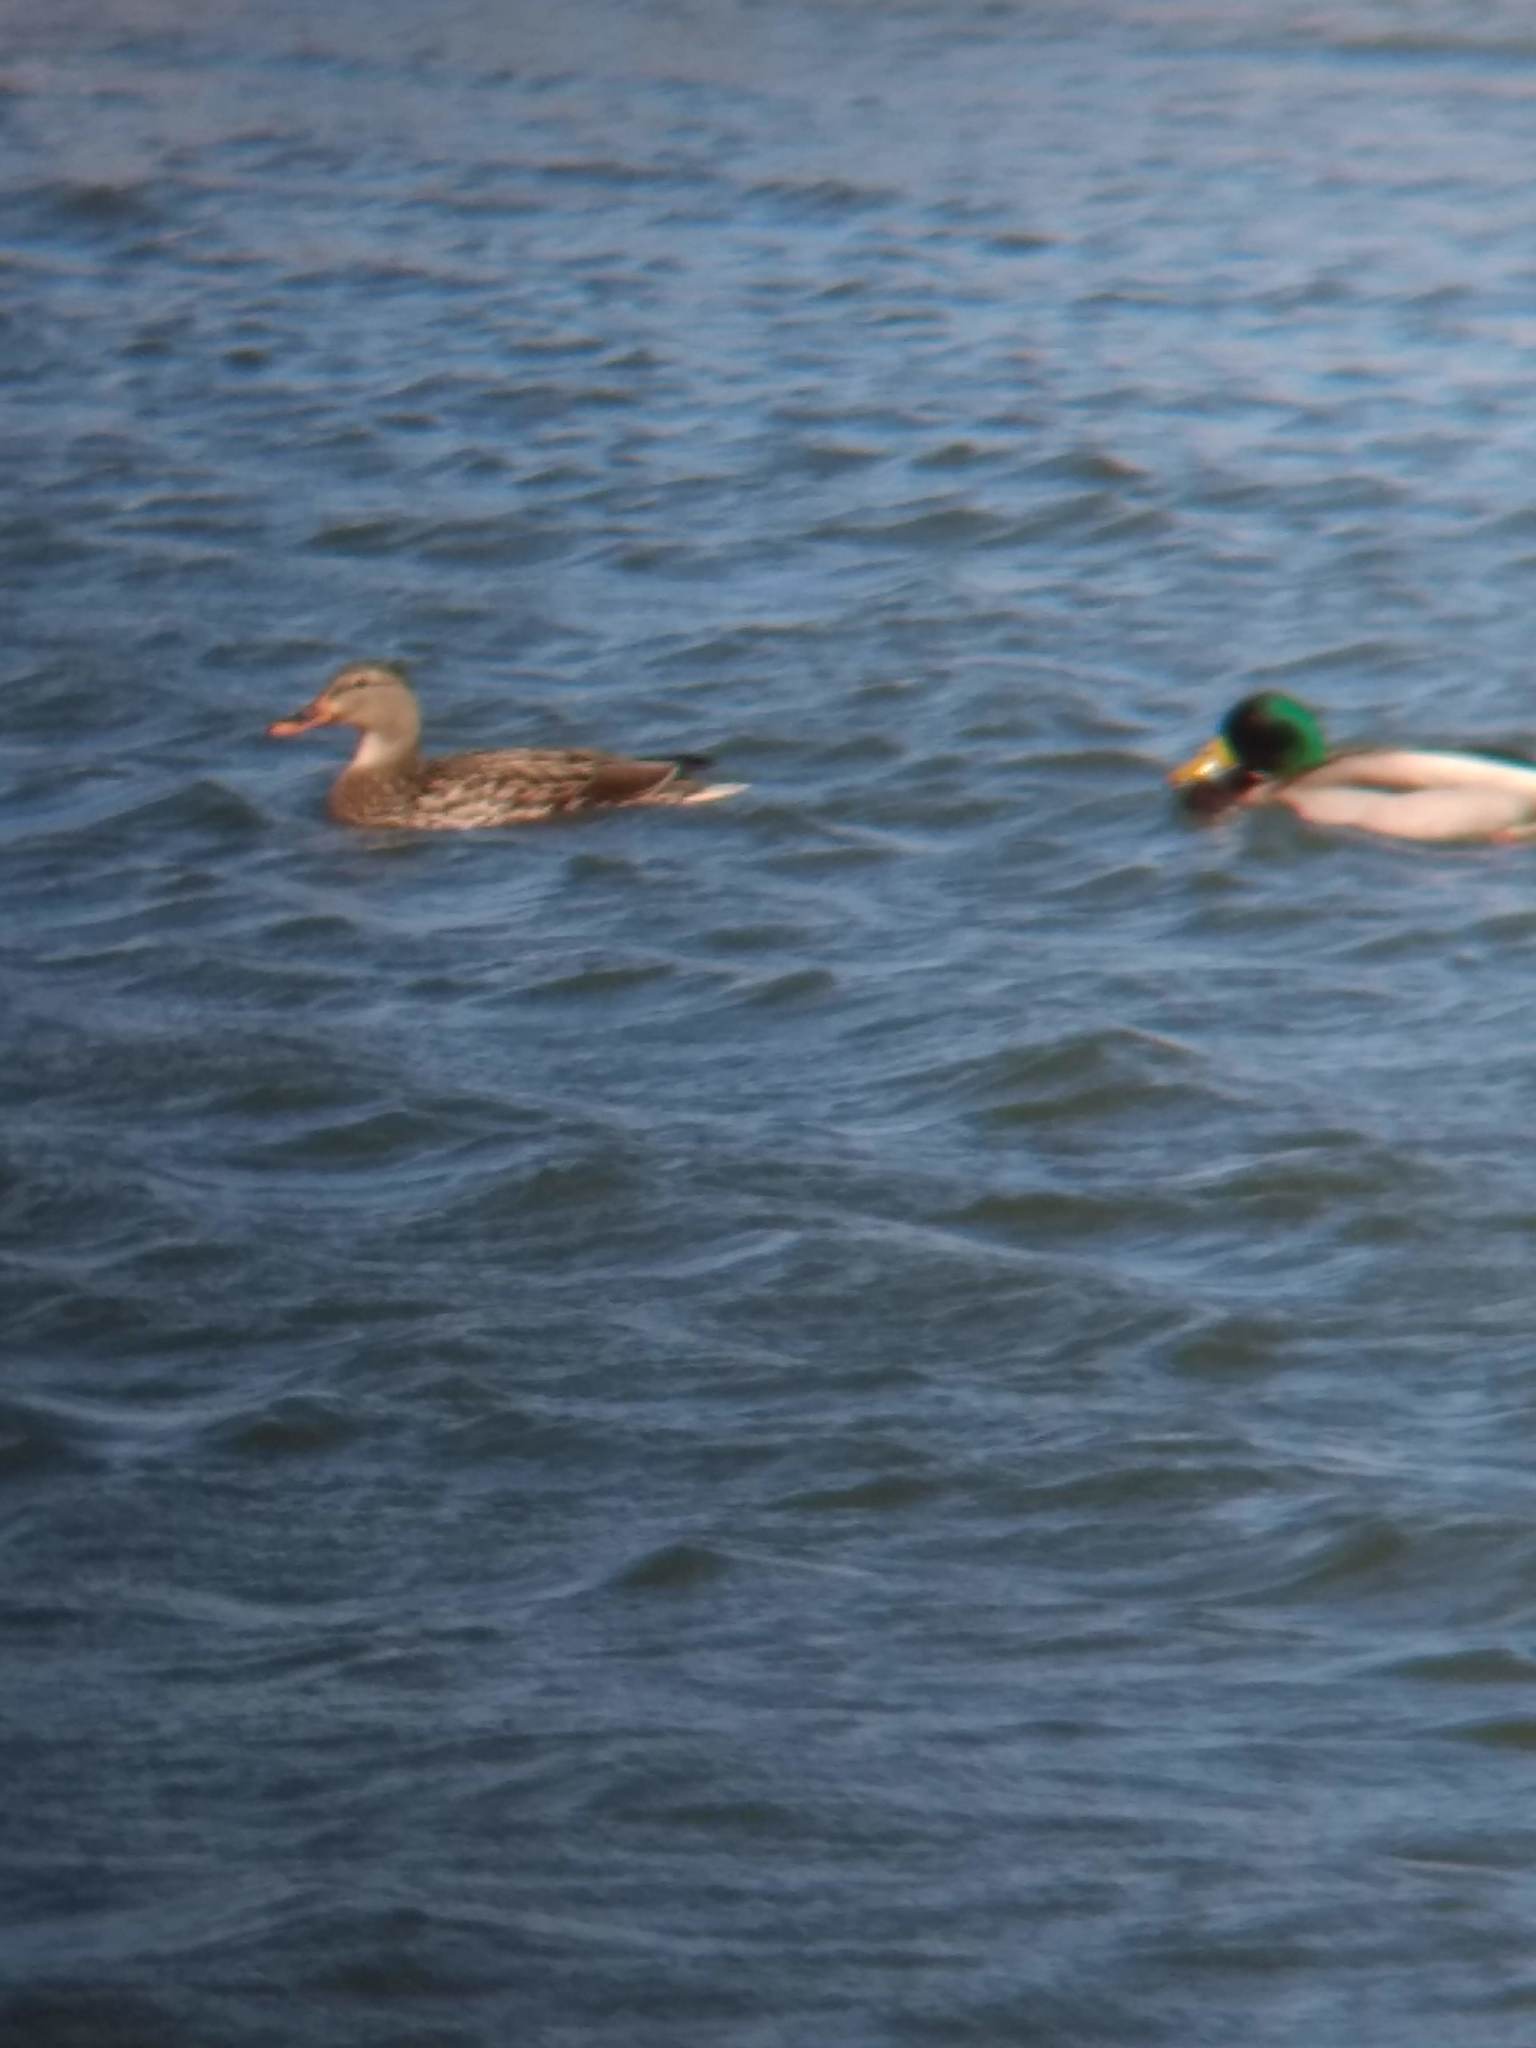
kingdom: Animalia
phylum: Chordata
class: Aves
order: Anseriformes
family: Anatidae
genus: Anas
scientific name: Anas platyrhynchos
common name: Mallard
